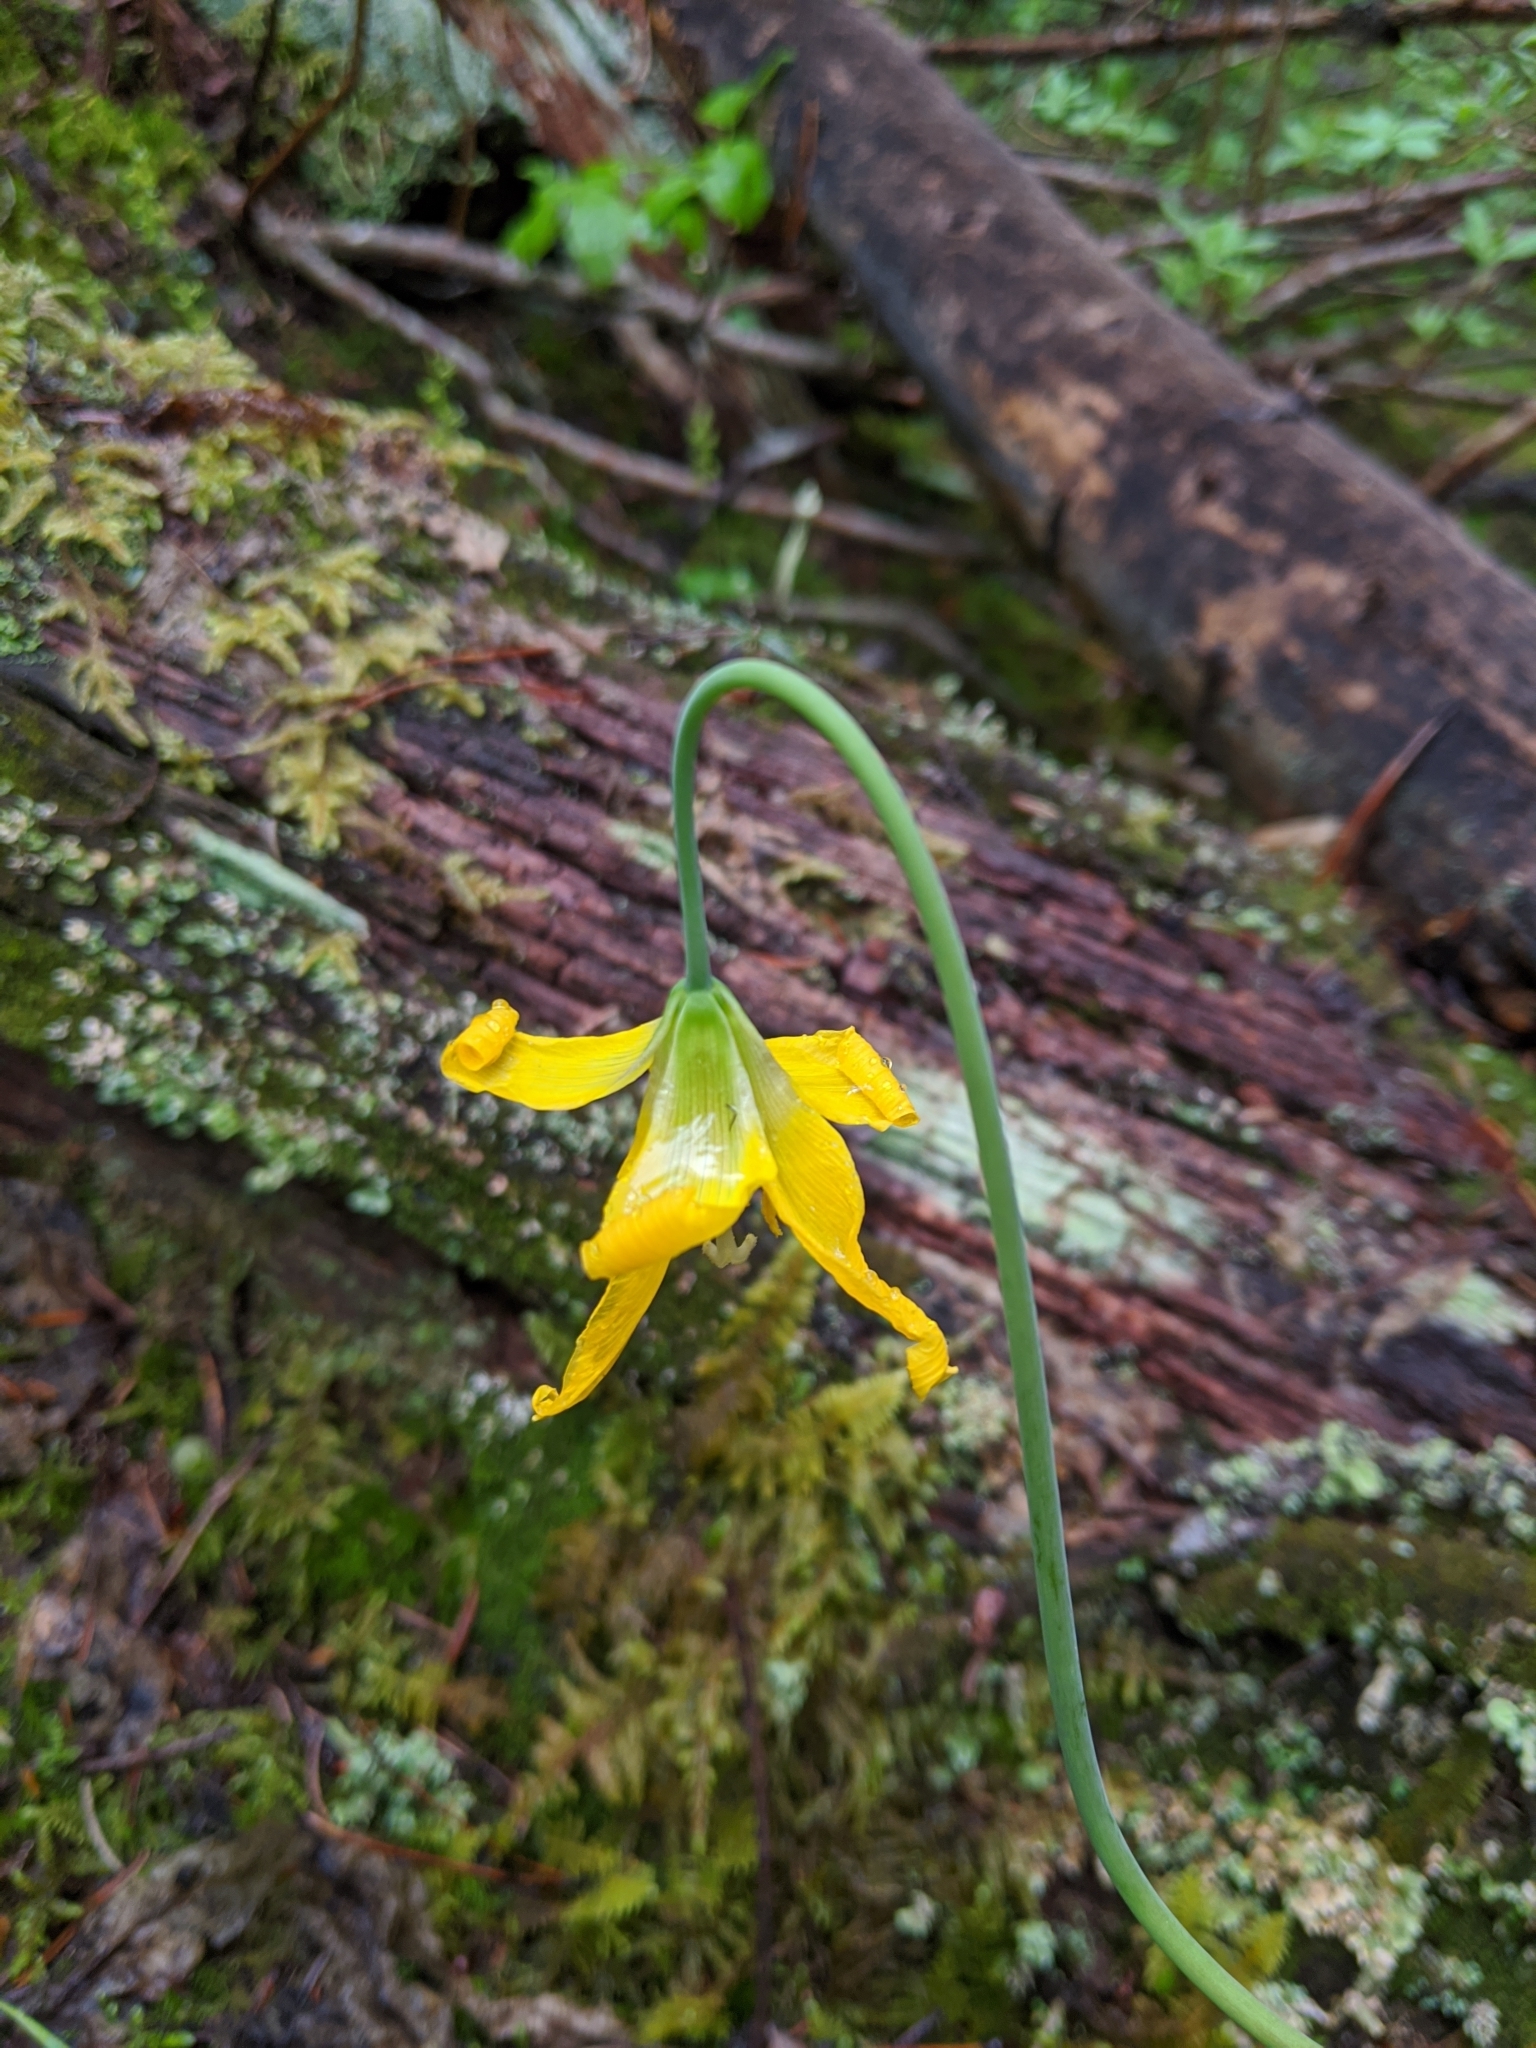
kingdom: Plantae
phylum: Tracheophyta
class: Liliopsida
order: Liliales
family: Liliaceae
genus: Erythronium
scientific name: Erythronium grandiflorum
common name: Avalanche-lily
